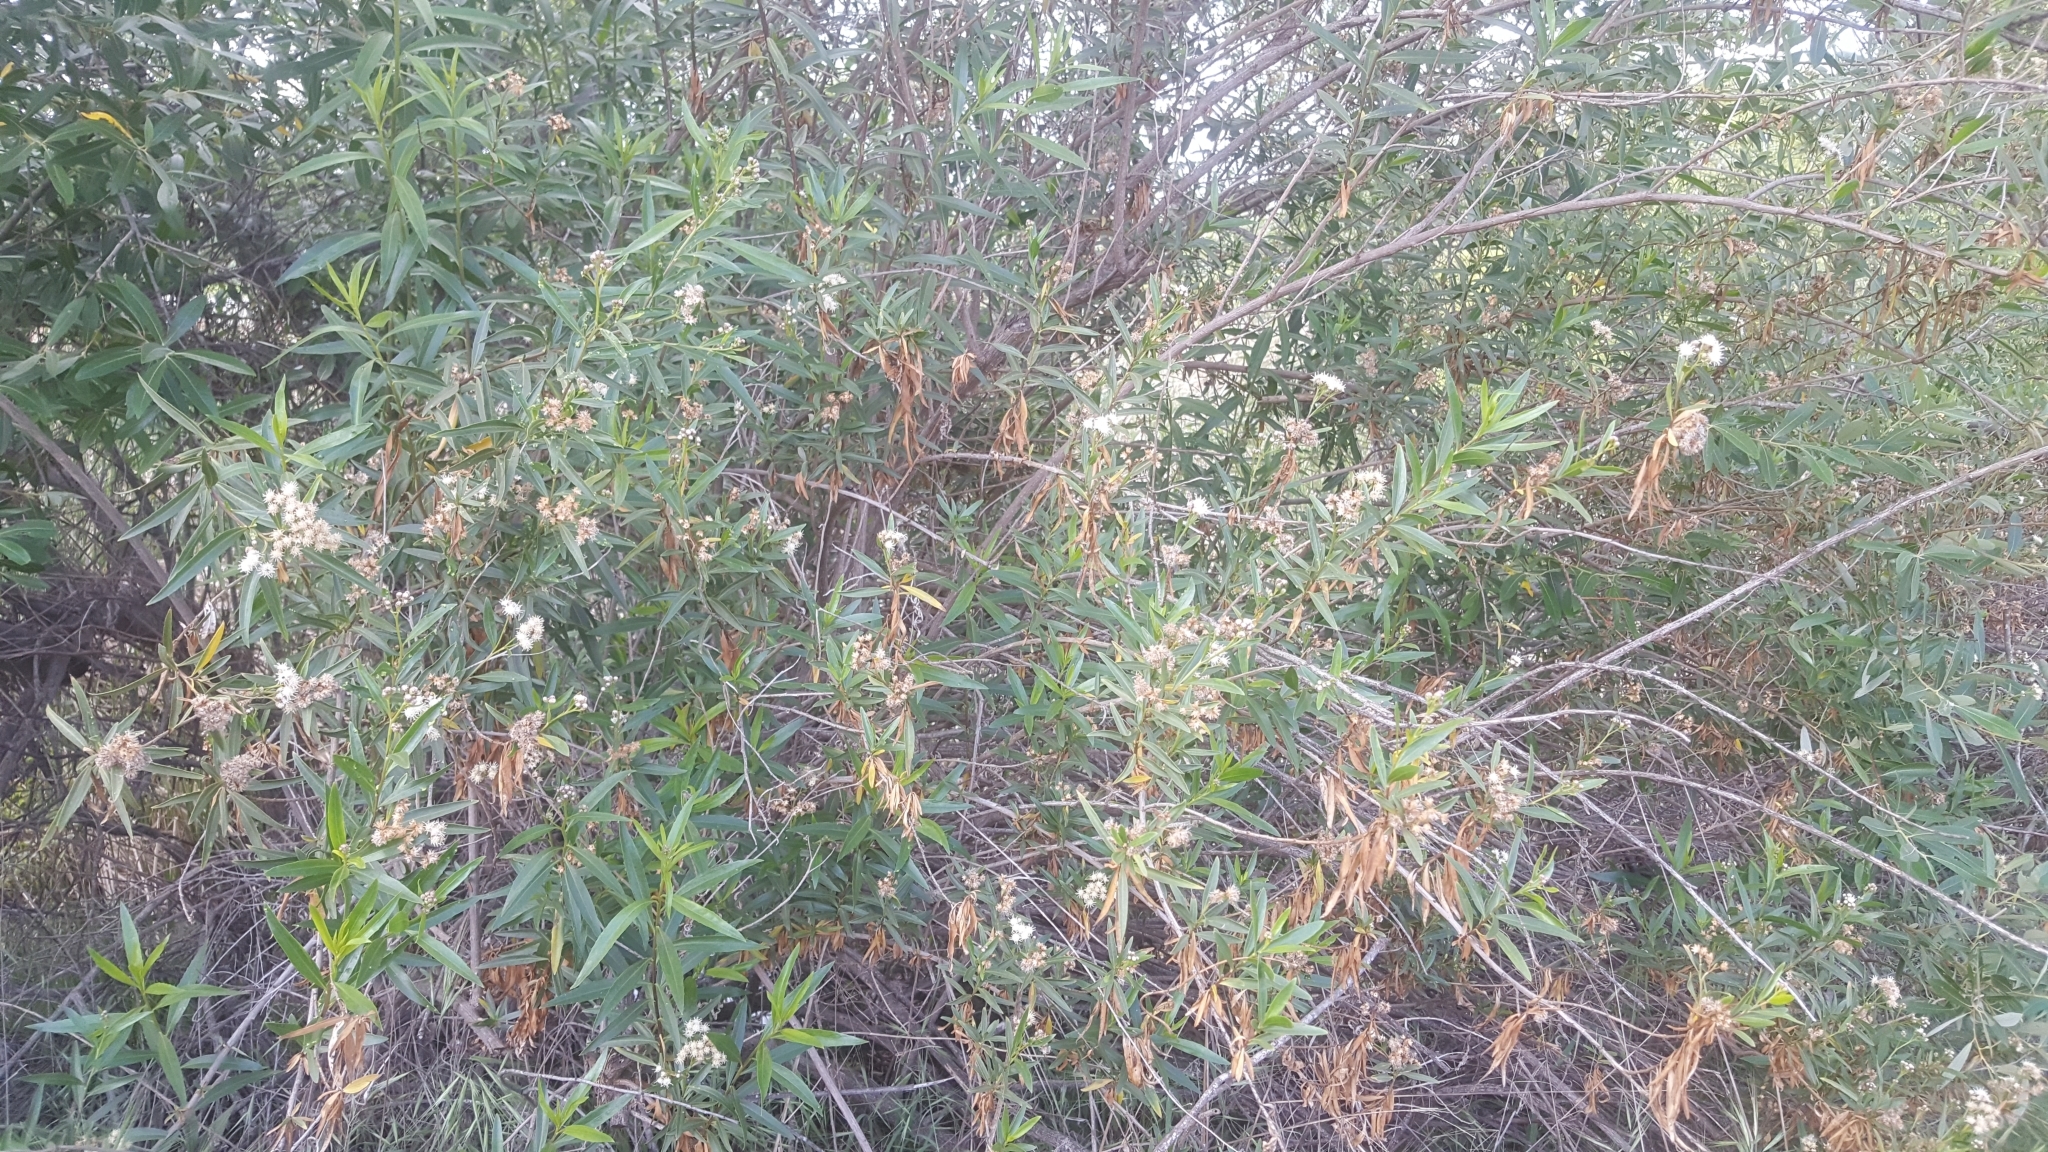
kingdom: Plantae
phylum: Tracheophyta
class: Magnoliopsida
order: Asterales
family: Asteraceae
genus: Baccharis
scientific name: Baccharis salicifolia
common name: Sticky baccharis
